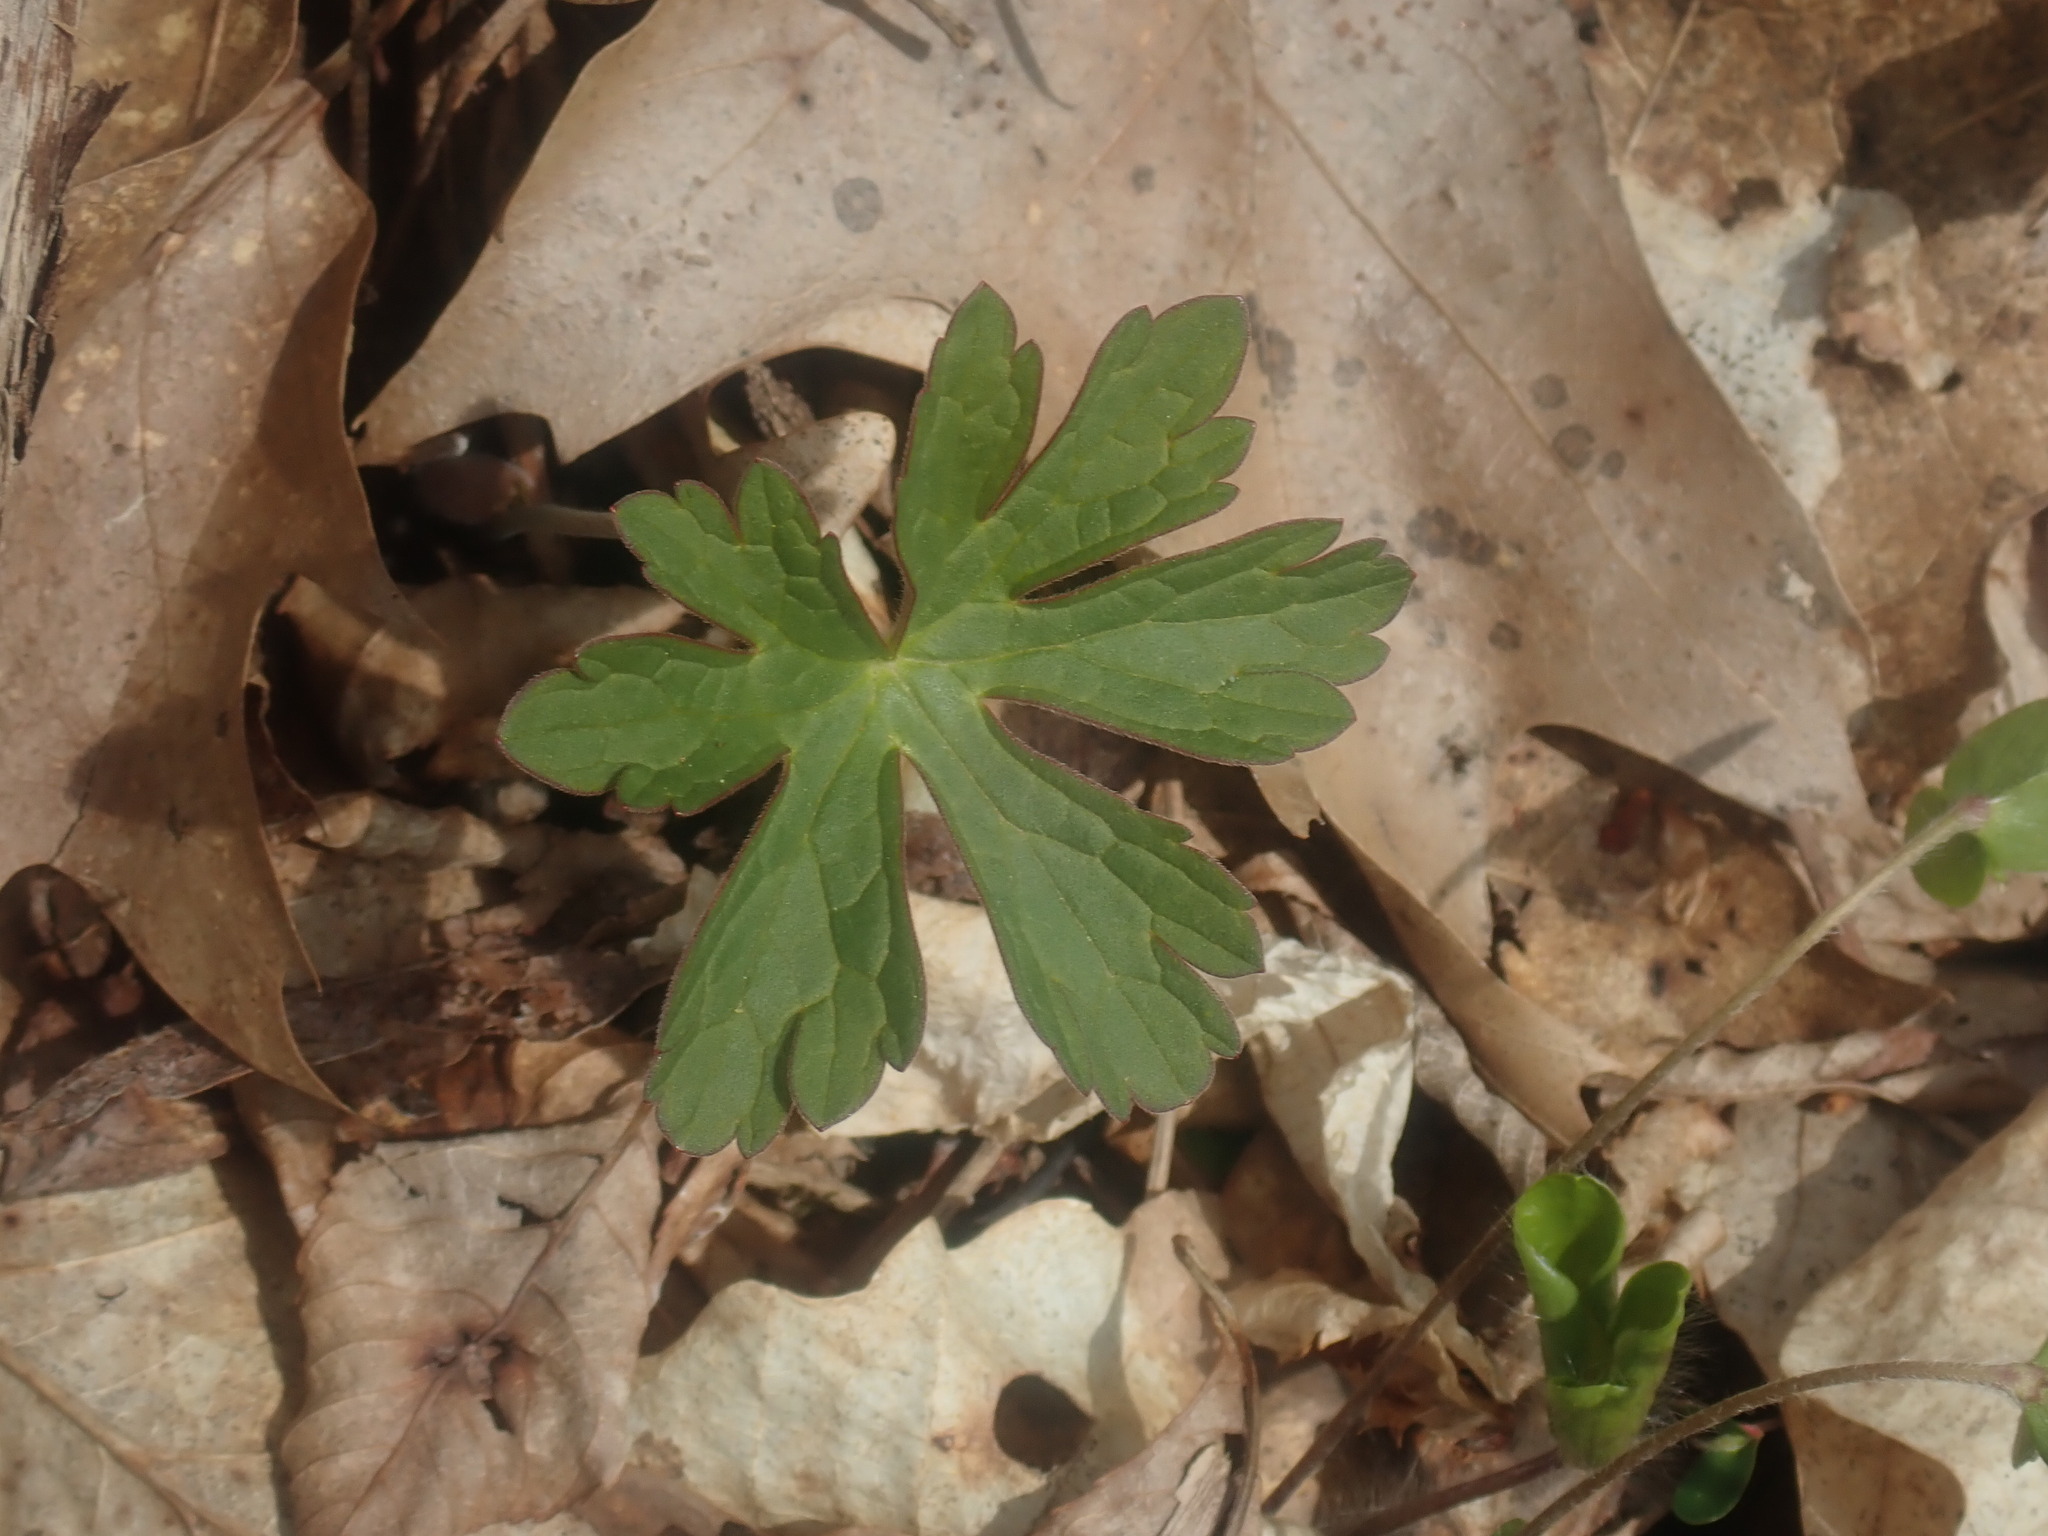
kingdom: Plantae
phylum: Tracheophyta
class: Magnoliopsida
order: Geraniales
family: Geraniaceae
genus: Geranium
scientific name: Geranium maculatum
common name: Spotted geranium
